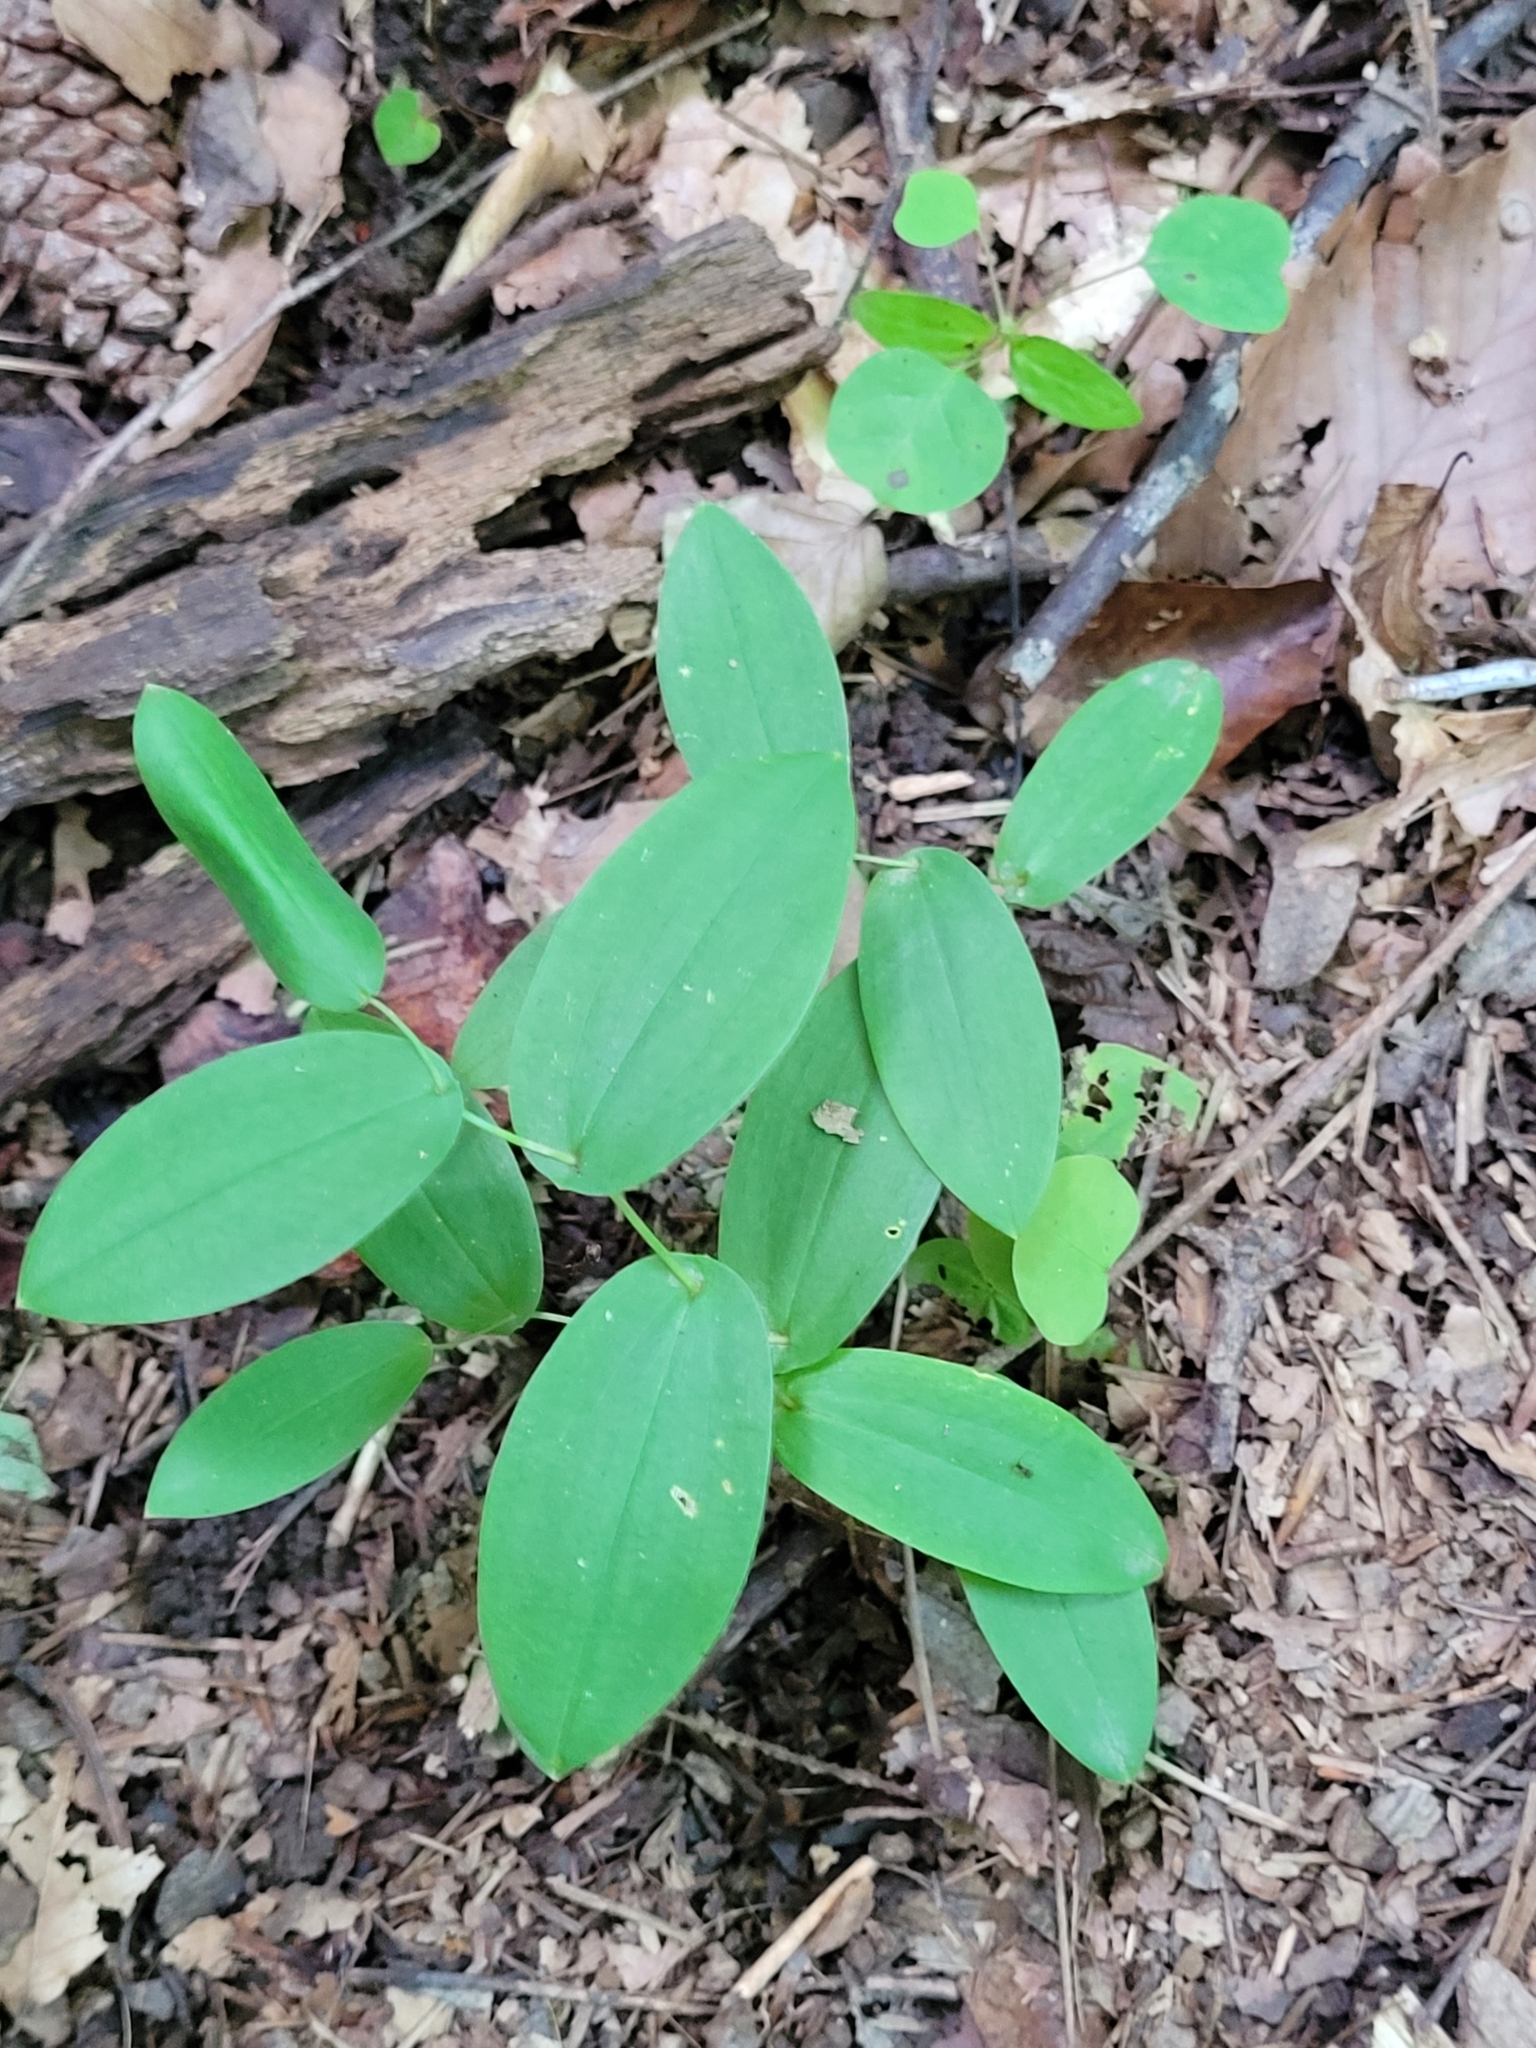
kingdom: Plantae
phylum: Tracheophyta
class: Liliopsida
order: Liliales
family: Colchicaceae
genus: Uvularia
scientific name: Uvularia perfoliata
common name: Perfoliate bellwort
